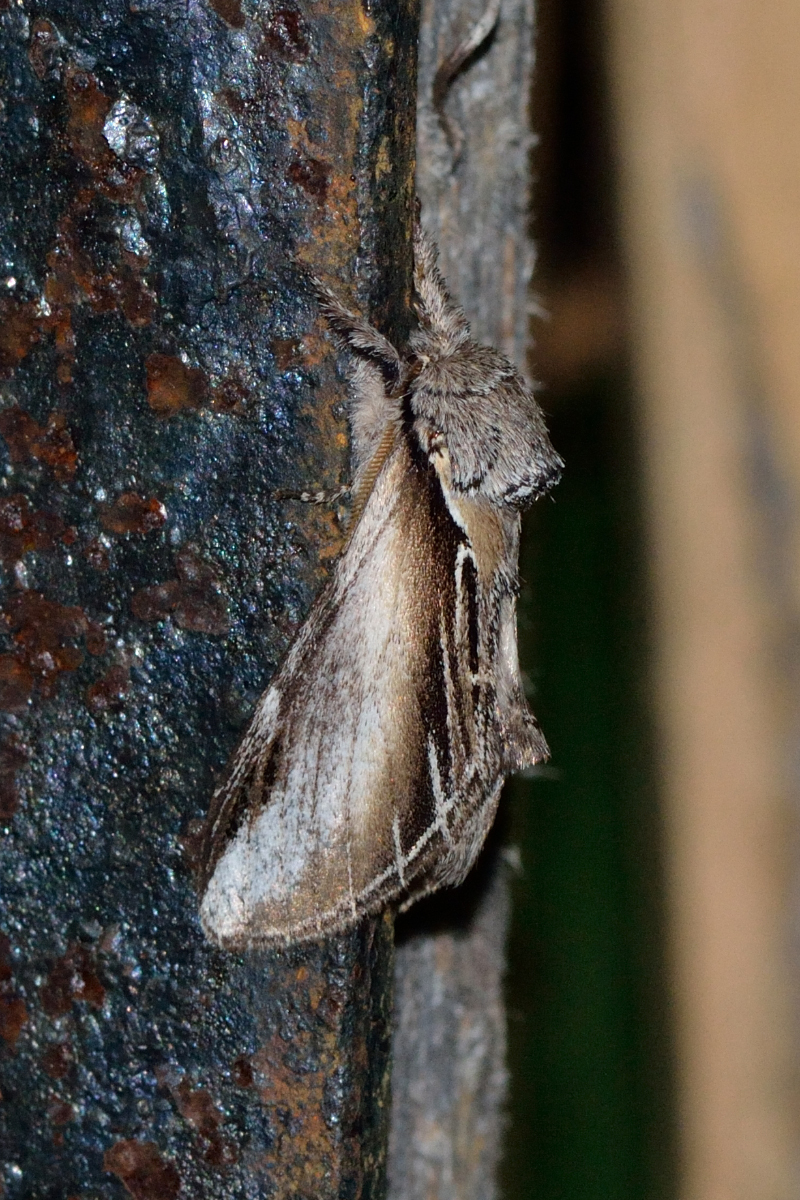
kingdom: Animalia
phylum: Arthropoda
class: Insecta
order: Lepidoptera
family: Notodontidae
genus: Pheosia
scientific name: Pheosia tremula
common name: Swallow prominent
